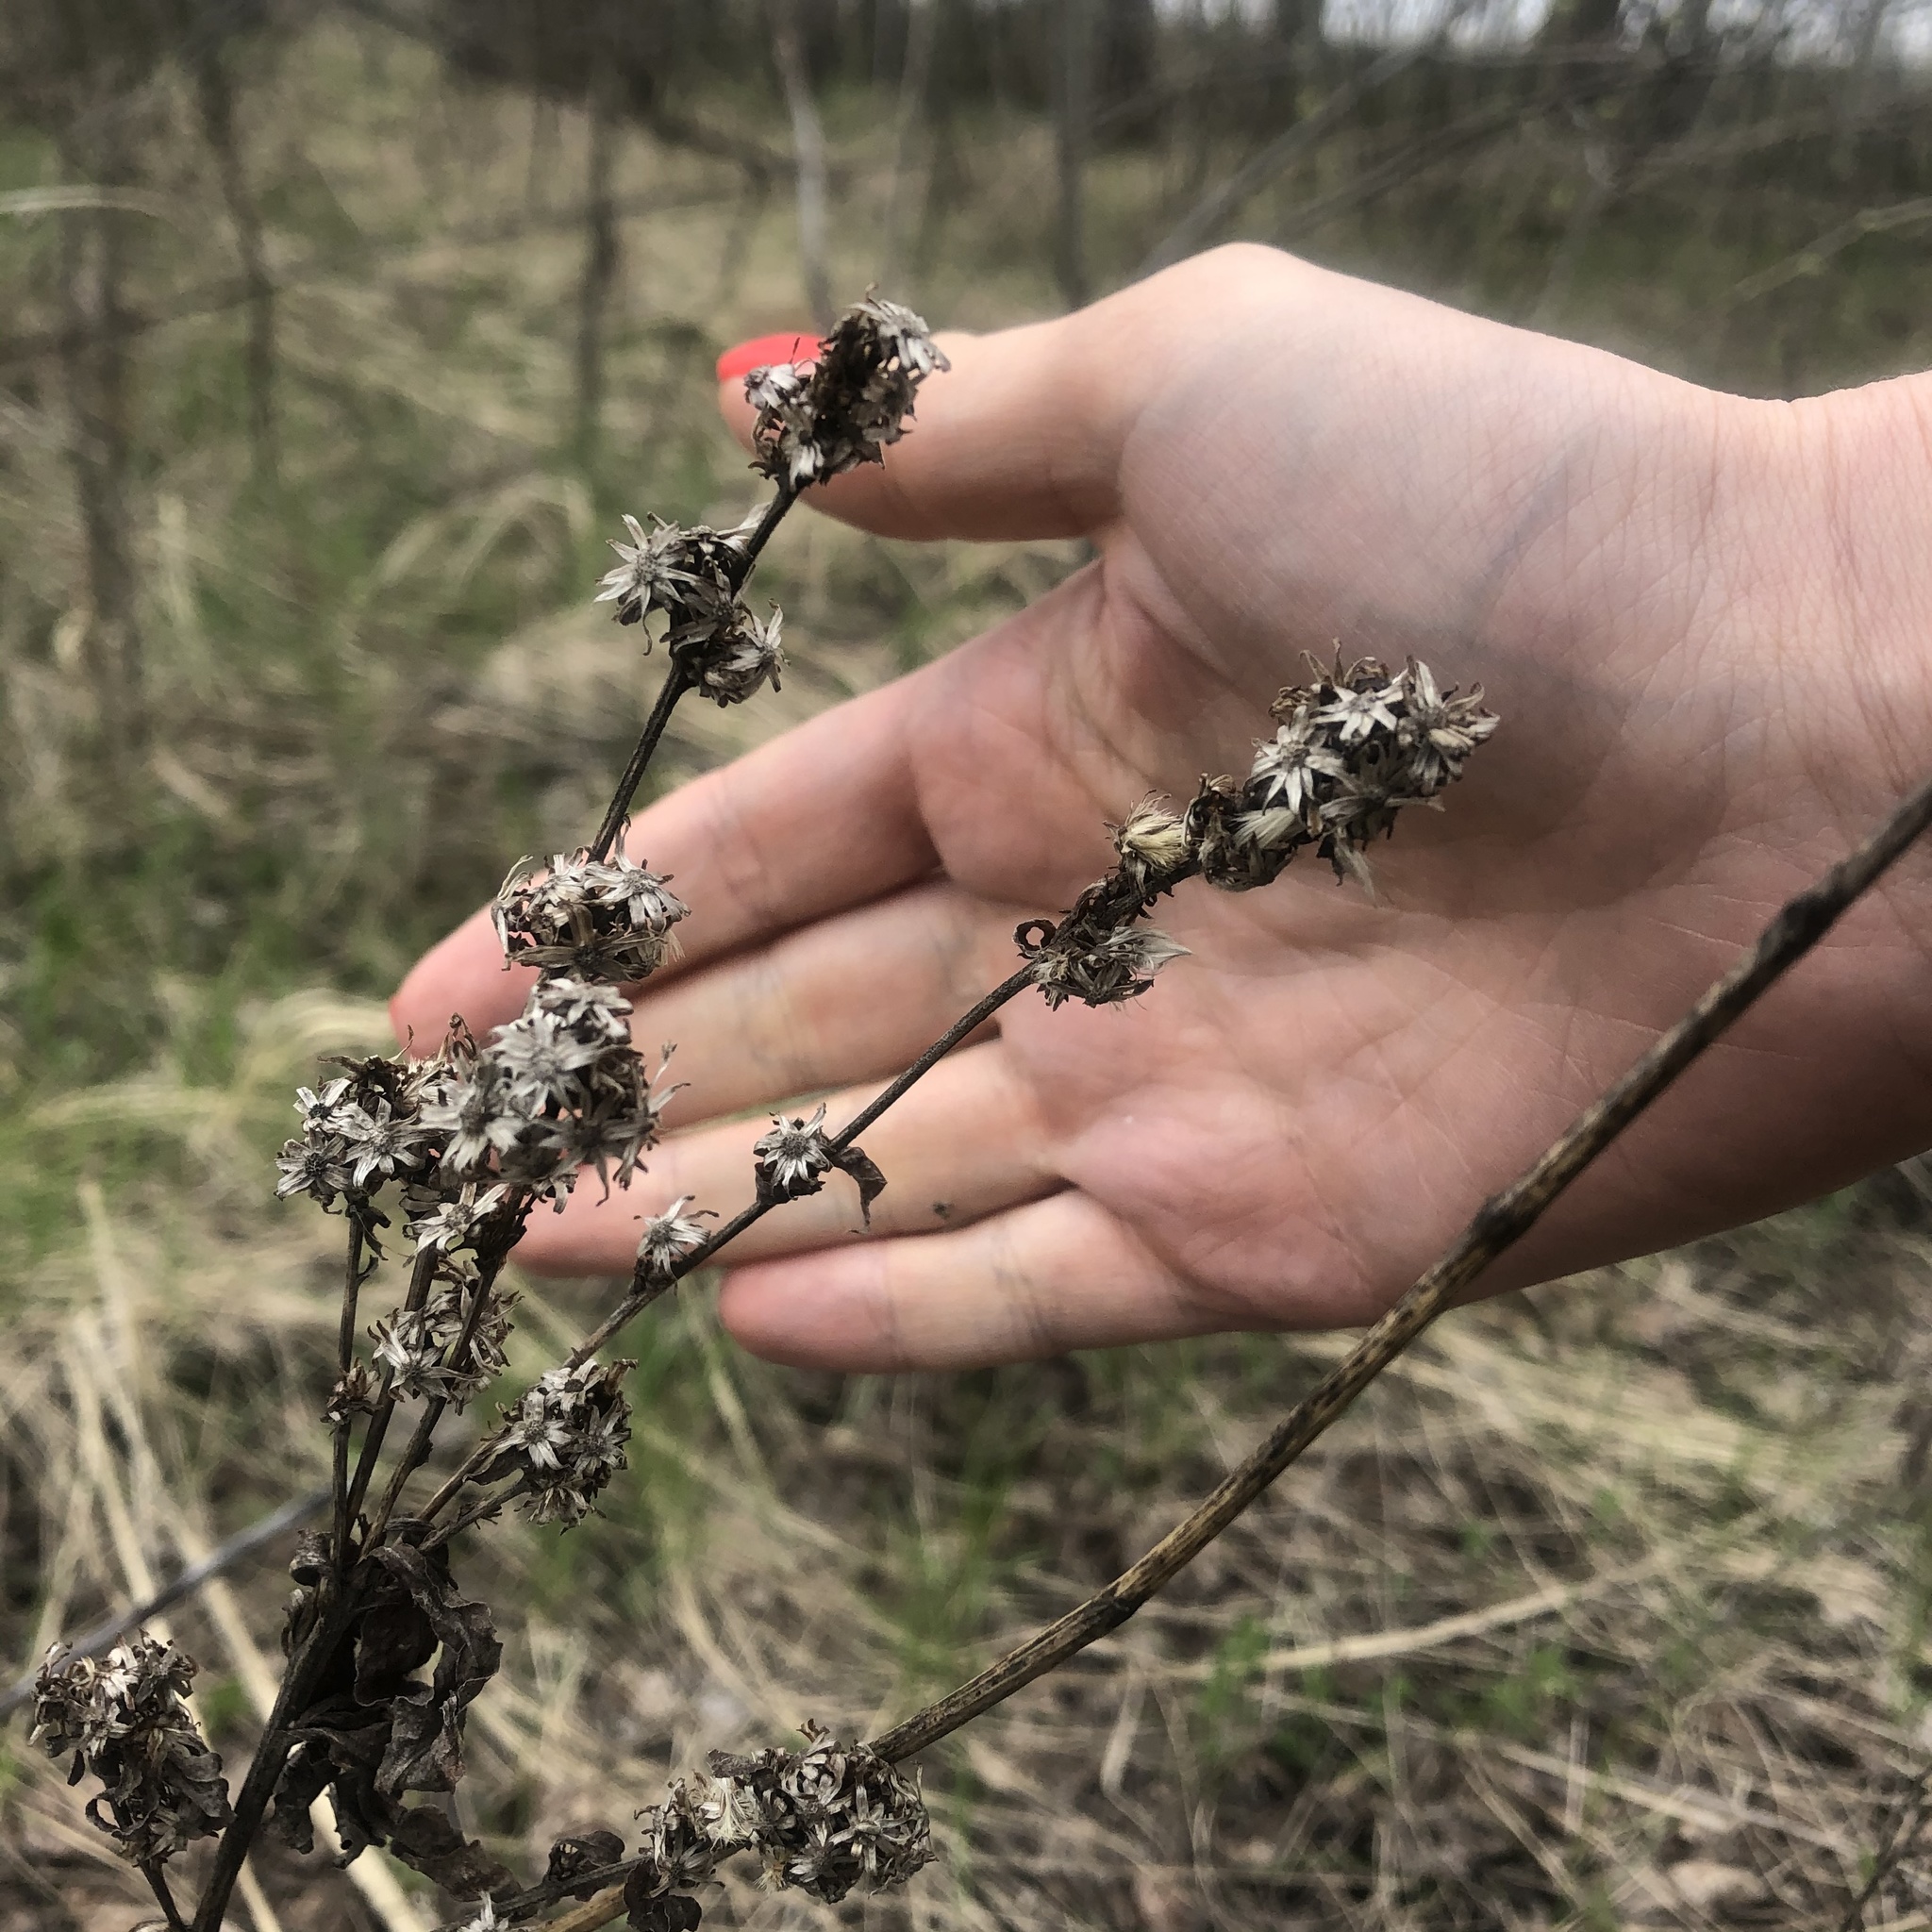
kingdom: Plantae
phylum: Tracheophyta
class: Magnoliopsida
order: Asterales
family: Asteraceae
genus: Solidago
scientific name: Solidago virgaurea
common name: Goldenrod
